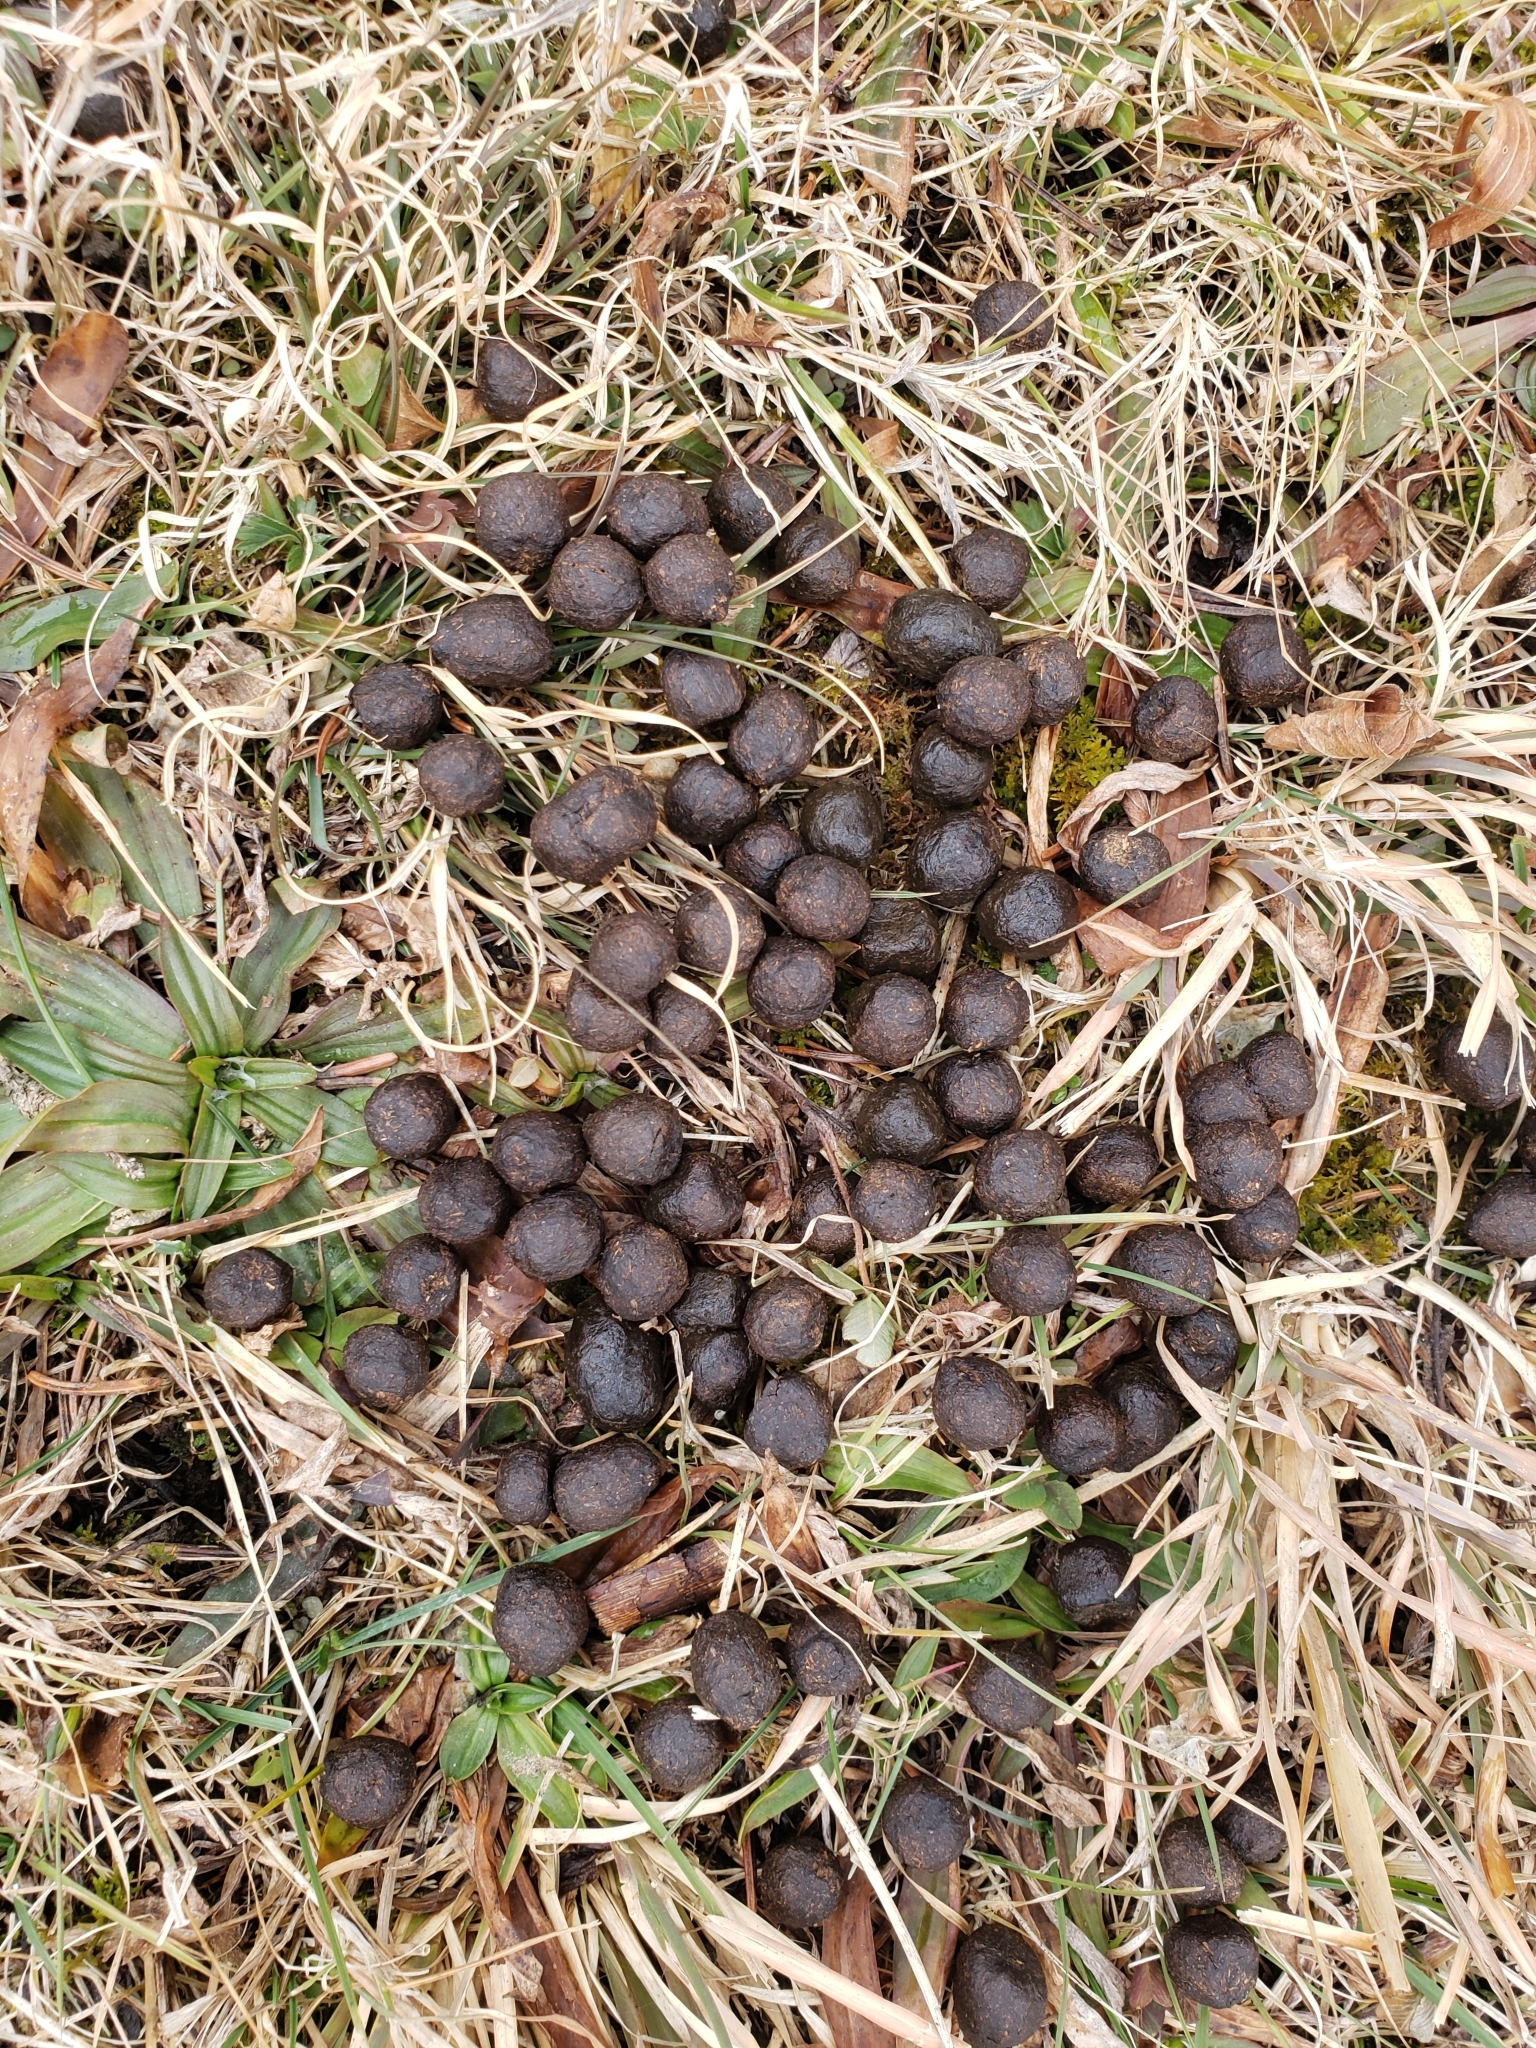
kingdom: Animalia
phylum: Chordata
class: Mammalia
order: Artiodactyla
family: Cervidae
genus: Odocoileus
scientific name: Odocoileus virginianus
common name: White-tailed deer
